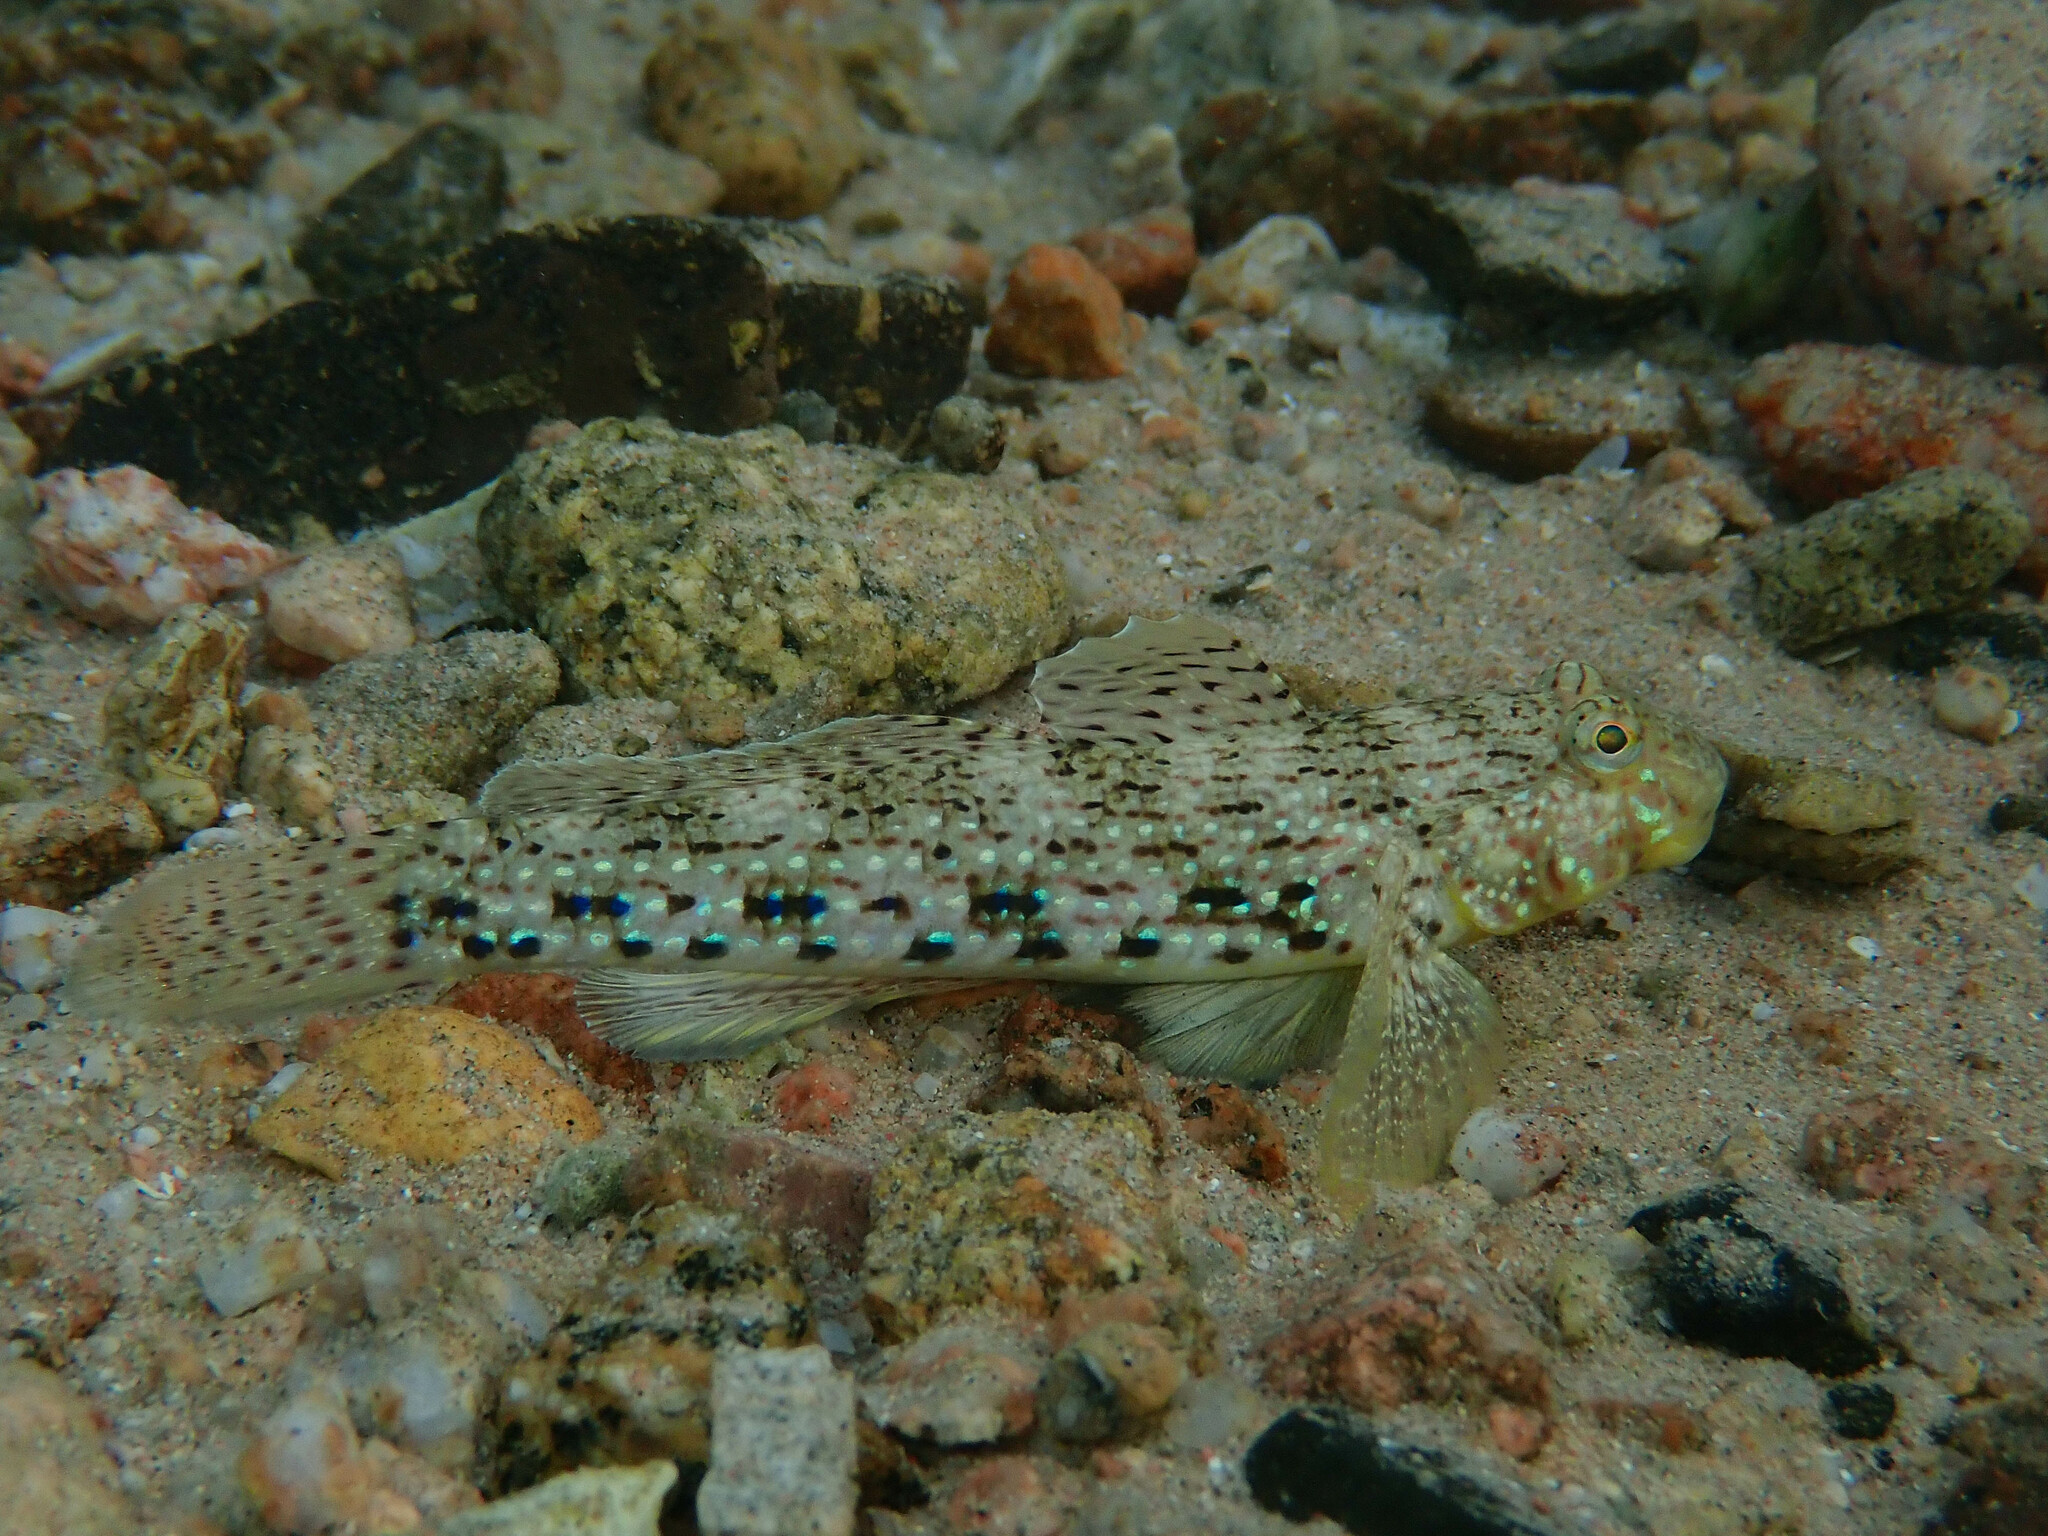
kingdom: Animalia
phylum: Chordata
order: Perciformes
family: Gobiidae
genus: Istigobius
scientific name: Istigobius ornatus
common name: Ornate goby
